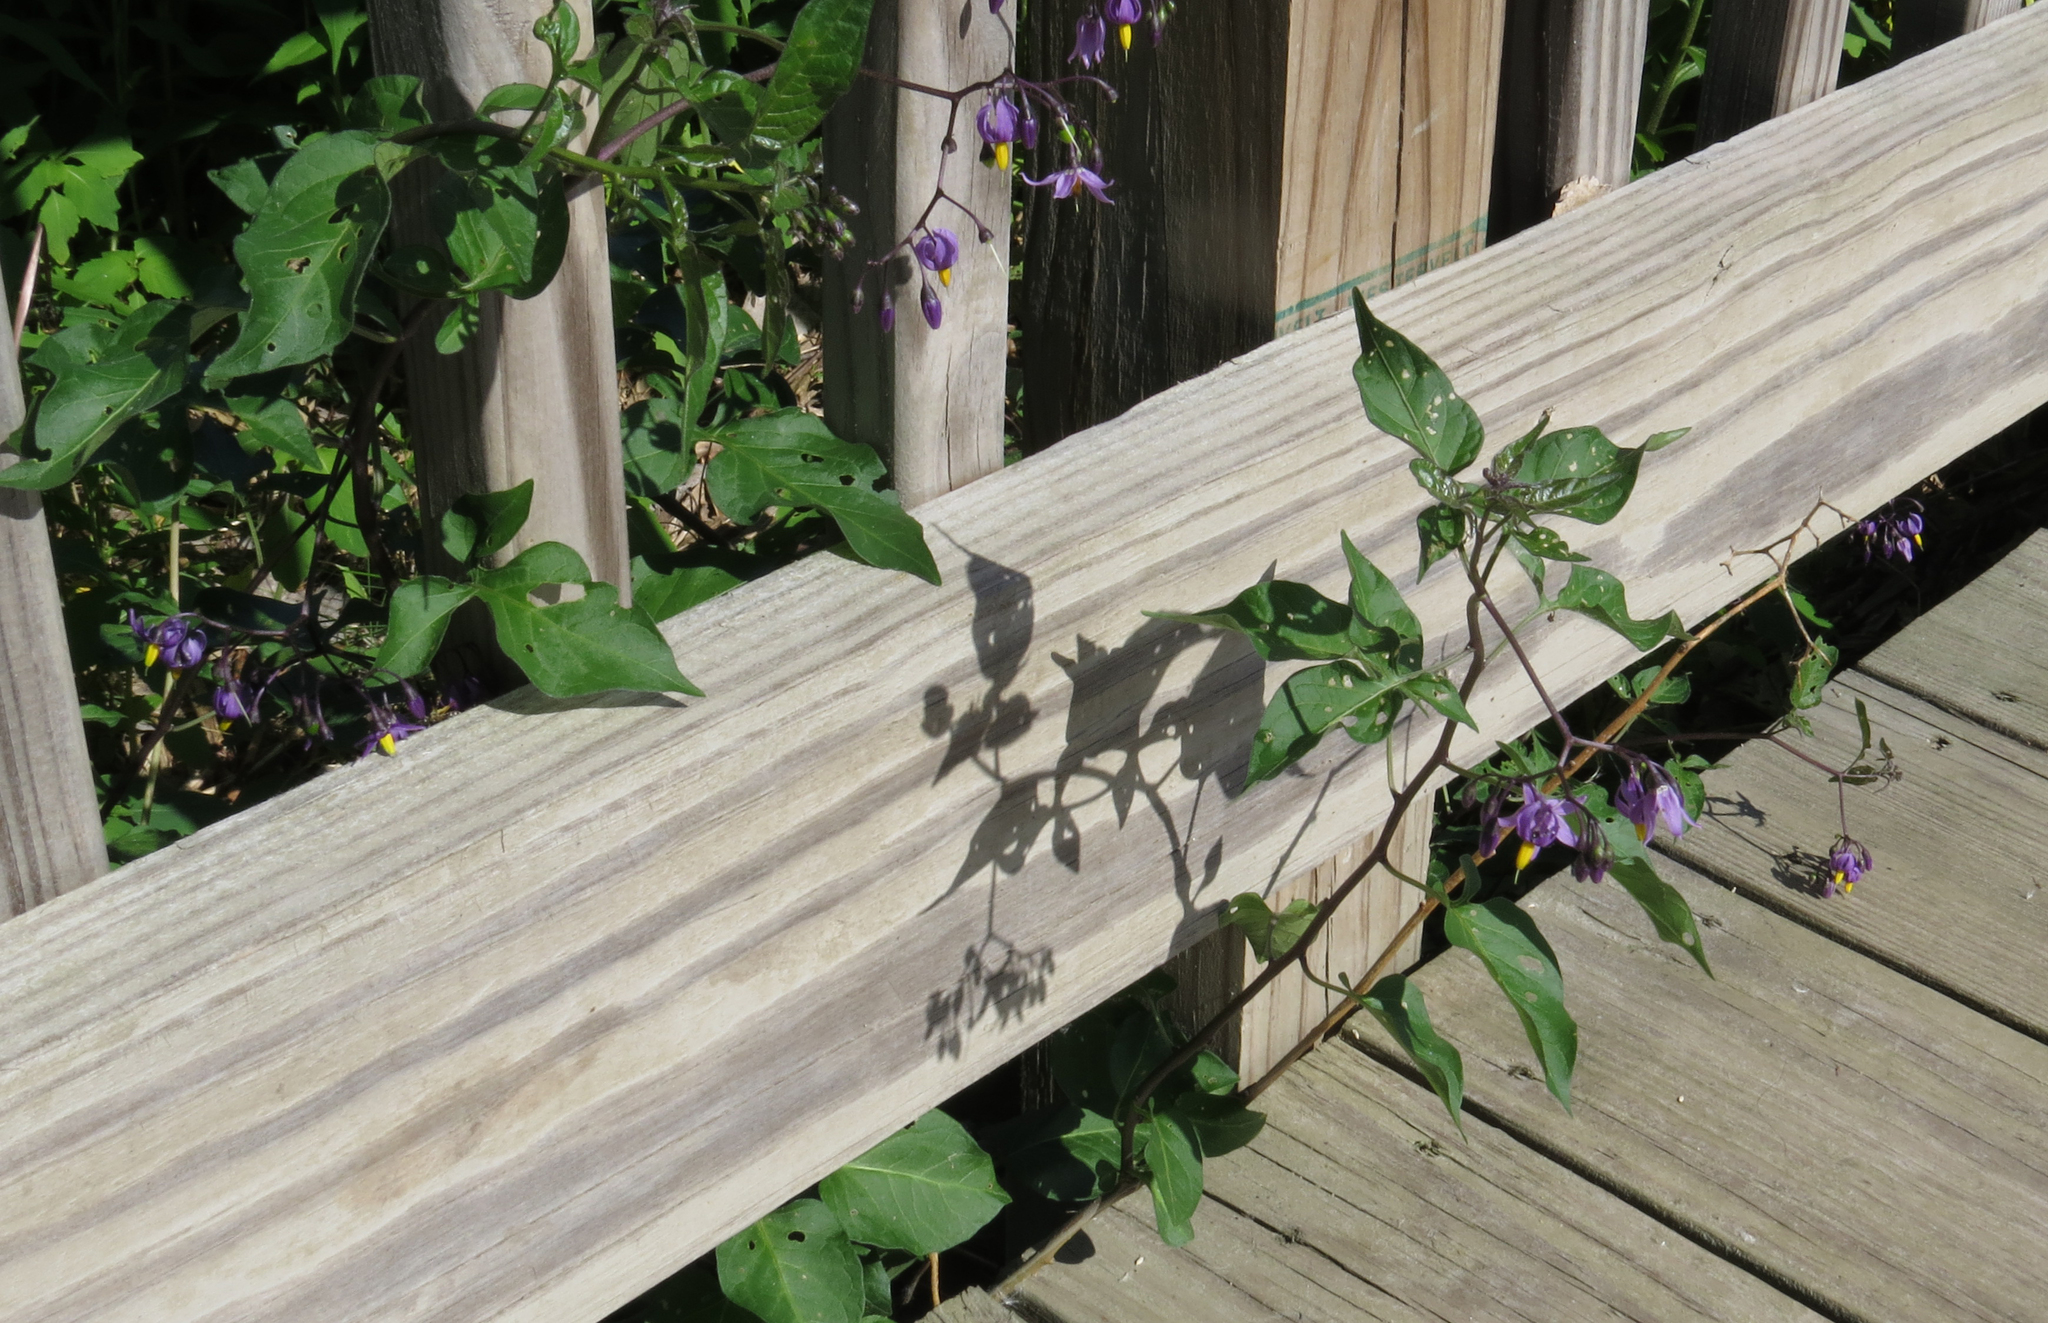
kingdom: Plantae
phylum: Tracheophyta
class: Magnoliopsida
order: Solanales
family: Solanaceae
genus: Solanum
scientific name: Solanum dulcamara
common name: Climbing nightshade
